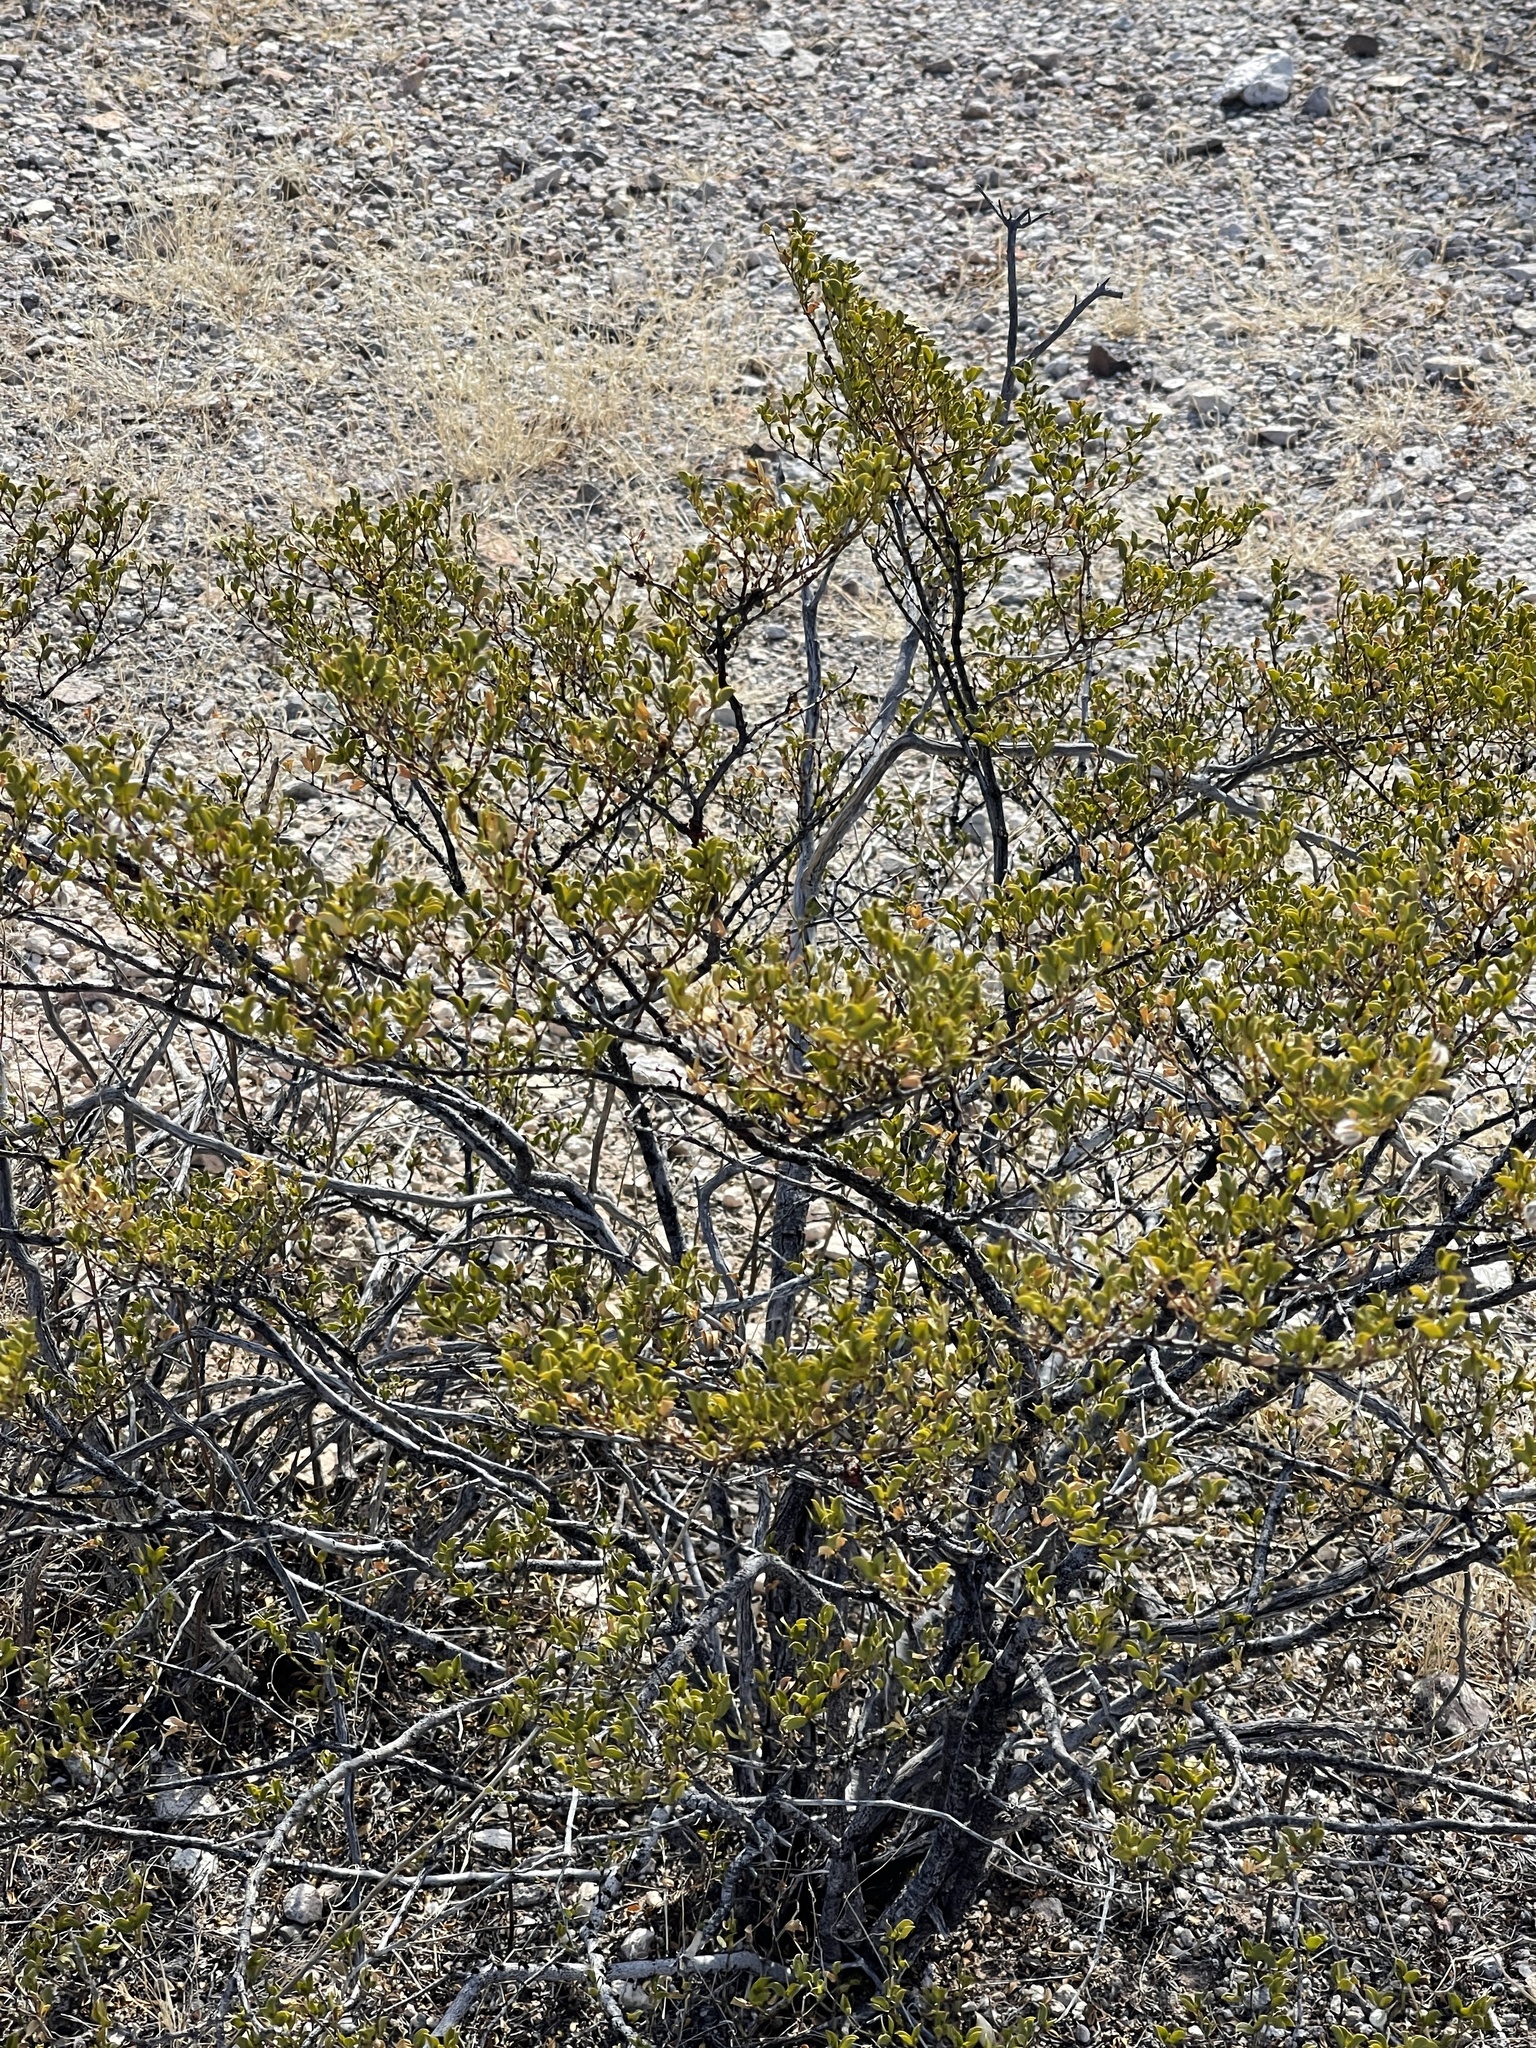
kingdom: Plantae
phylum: Tracheophyta
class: Magnoliopsida
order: Zygophyllales
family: Zygophyllaceae
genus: Larrea
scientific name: Larrea tridentata
